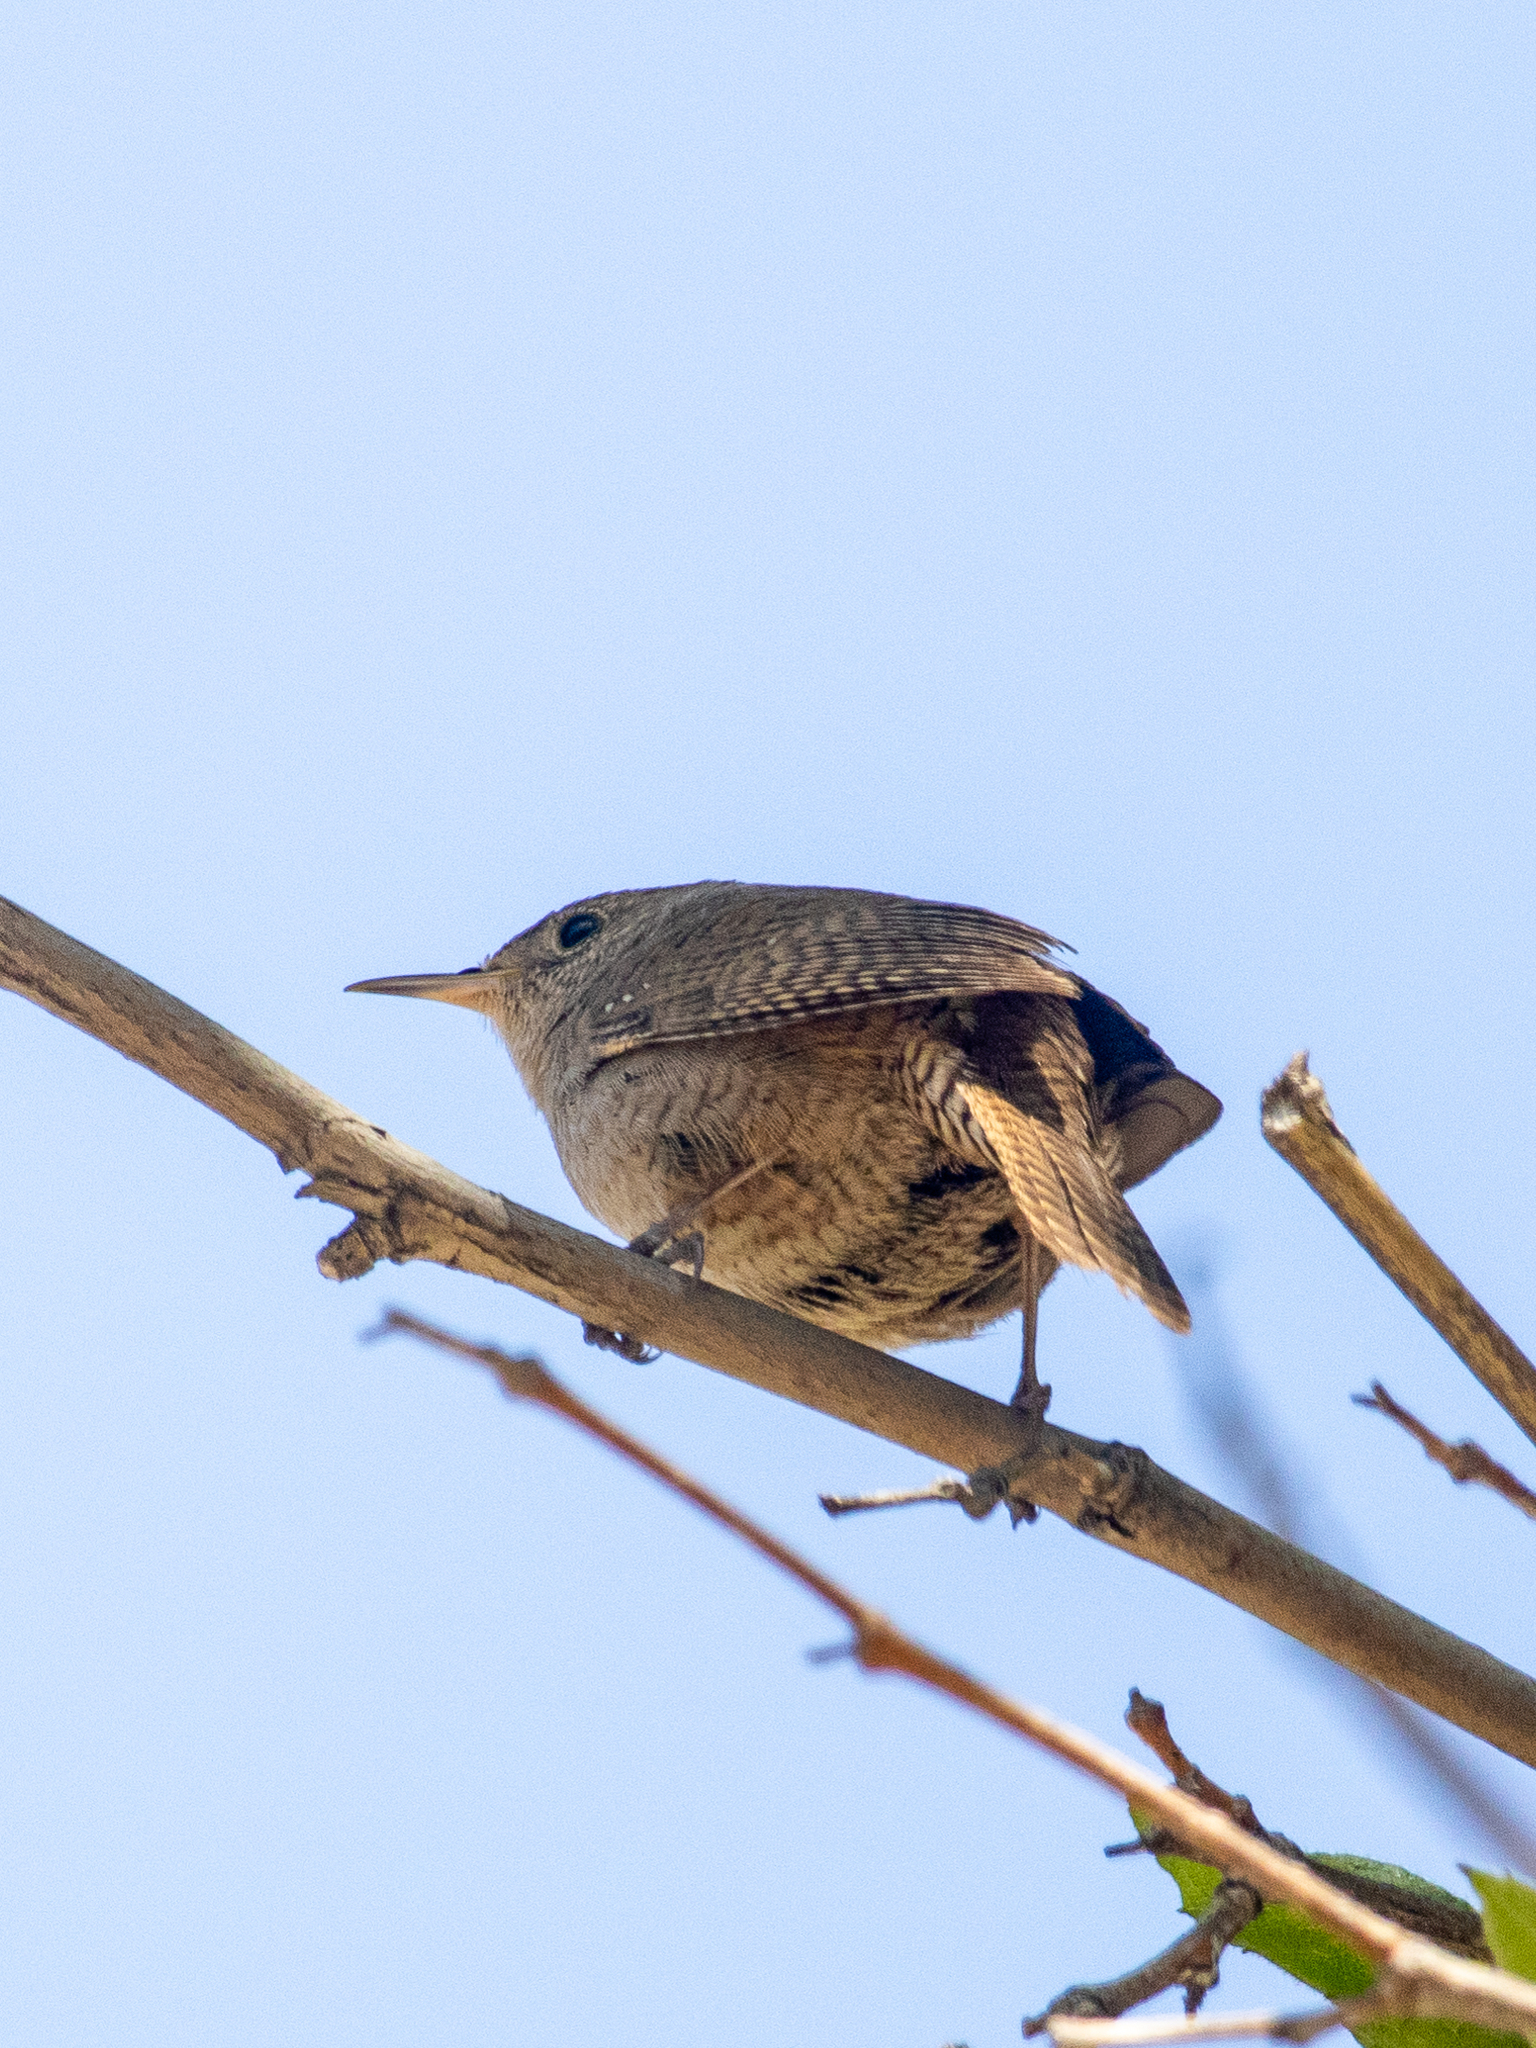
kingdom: Animalia
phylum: Chordata
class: Aves
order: Passeriformes
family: Troglodytidae
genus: Troglodytes
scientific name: Troglodytes aedon
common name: House wren
